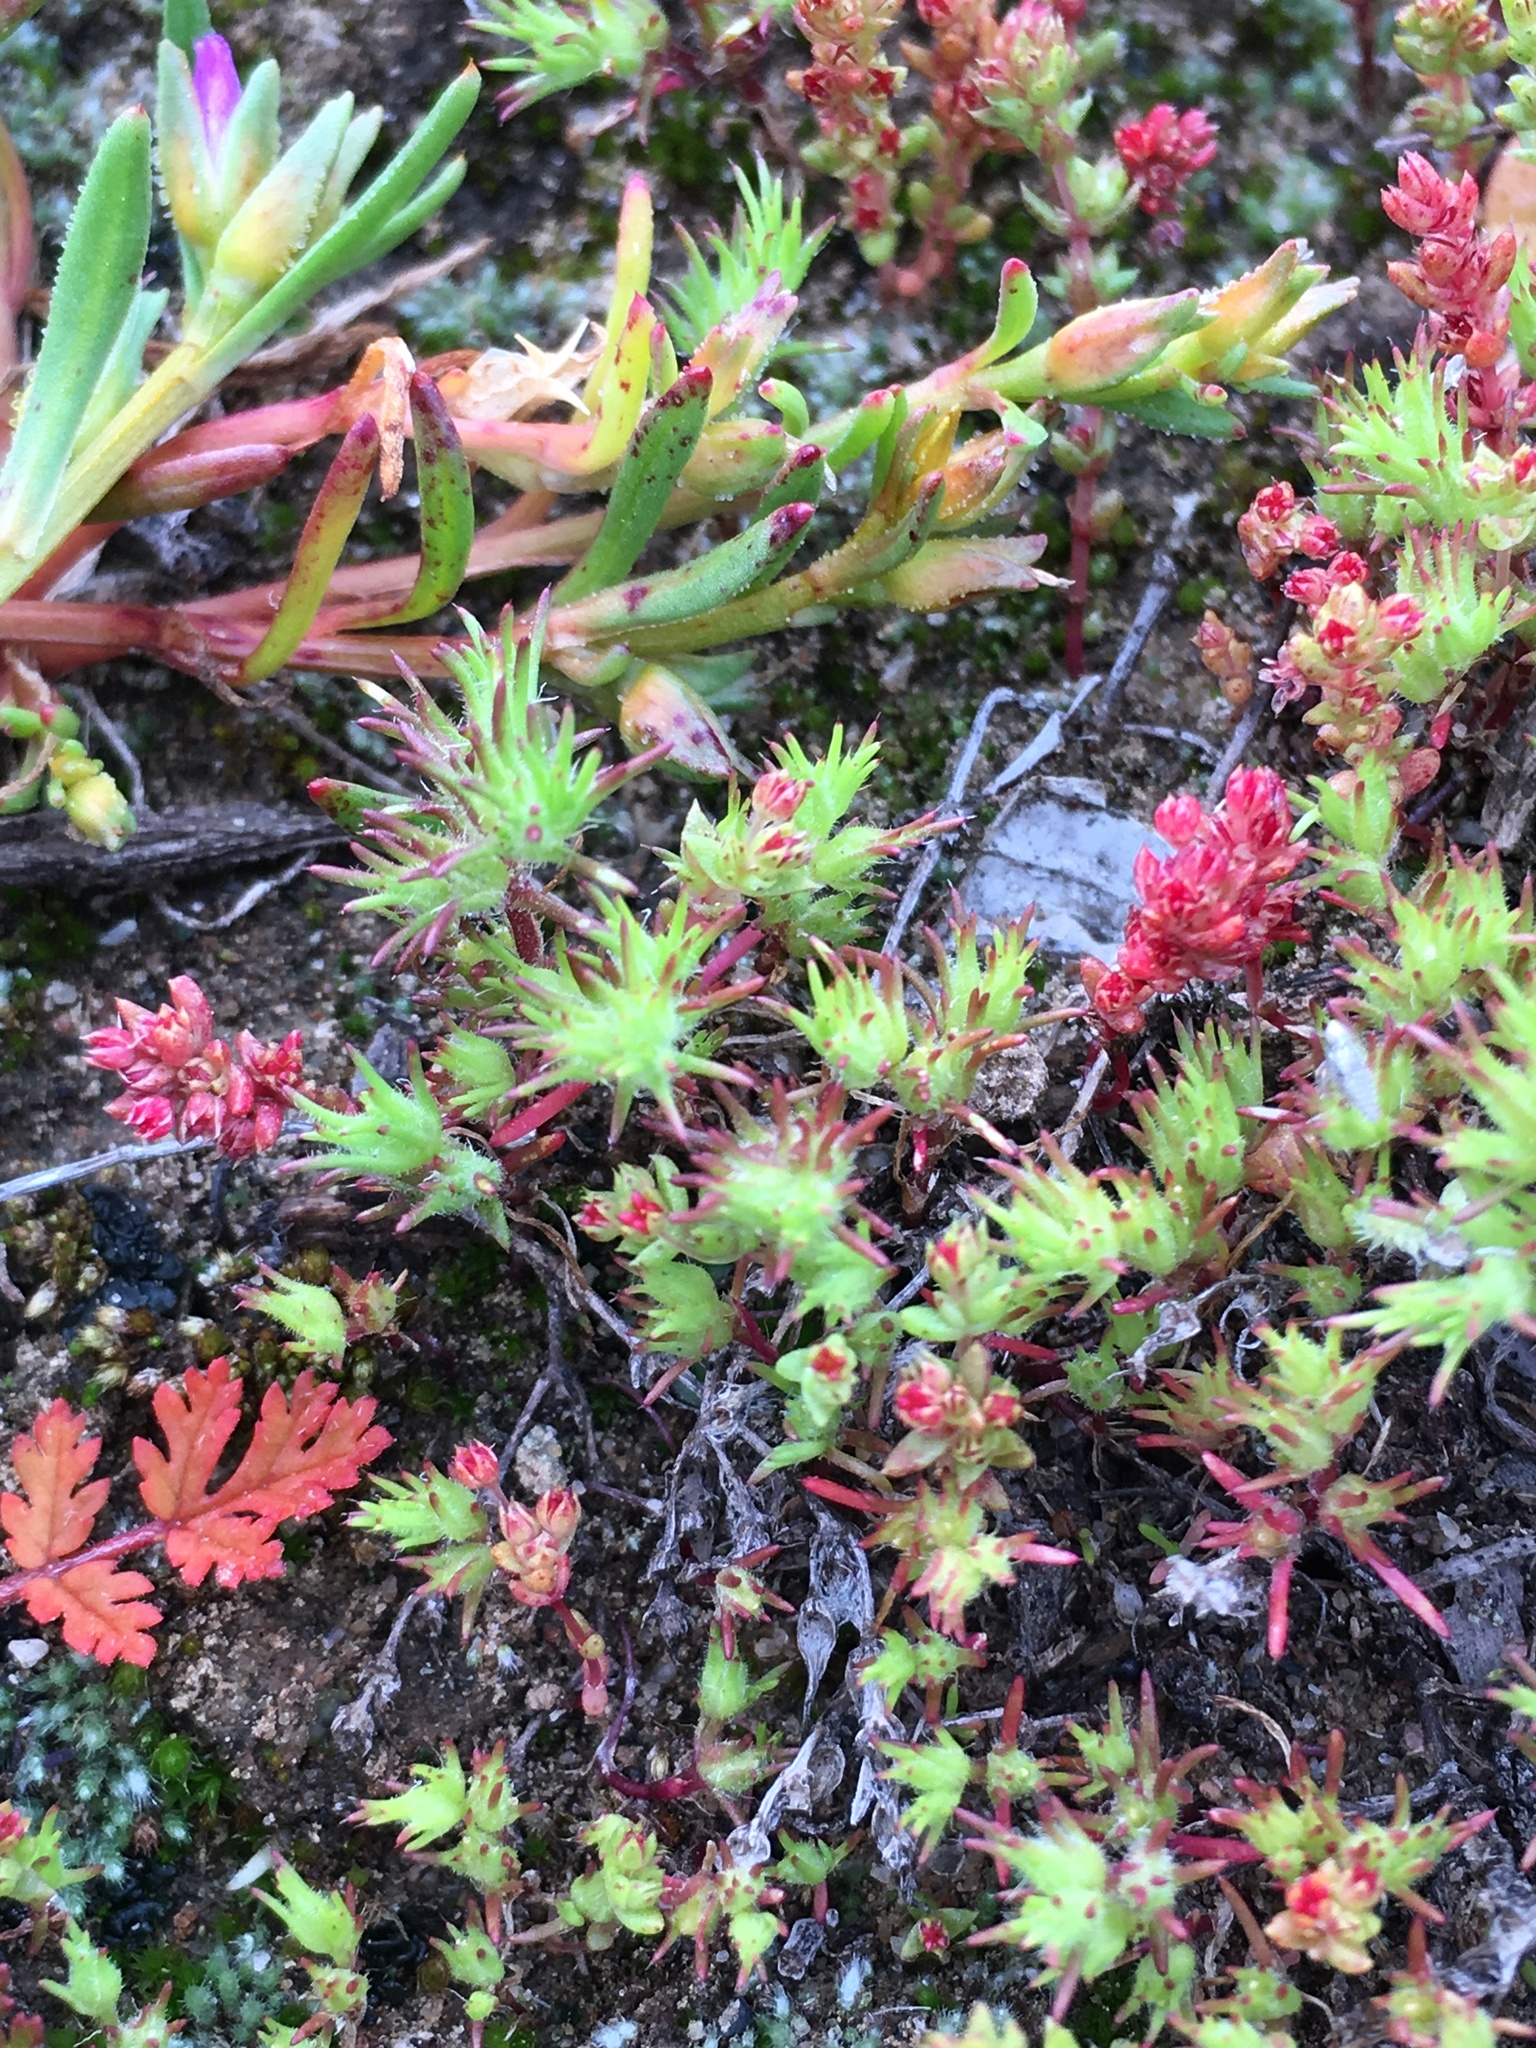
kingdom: Plantae
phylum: Tracheophyta
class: Magnoliopsida
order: Saxifragales
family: Crassulaceae
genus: Crassula
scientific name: Crassula connata
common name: Erect pygmyweed
